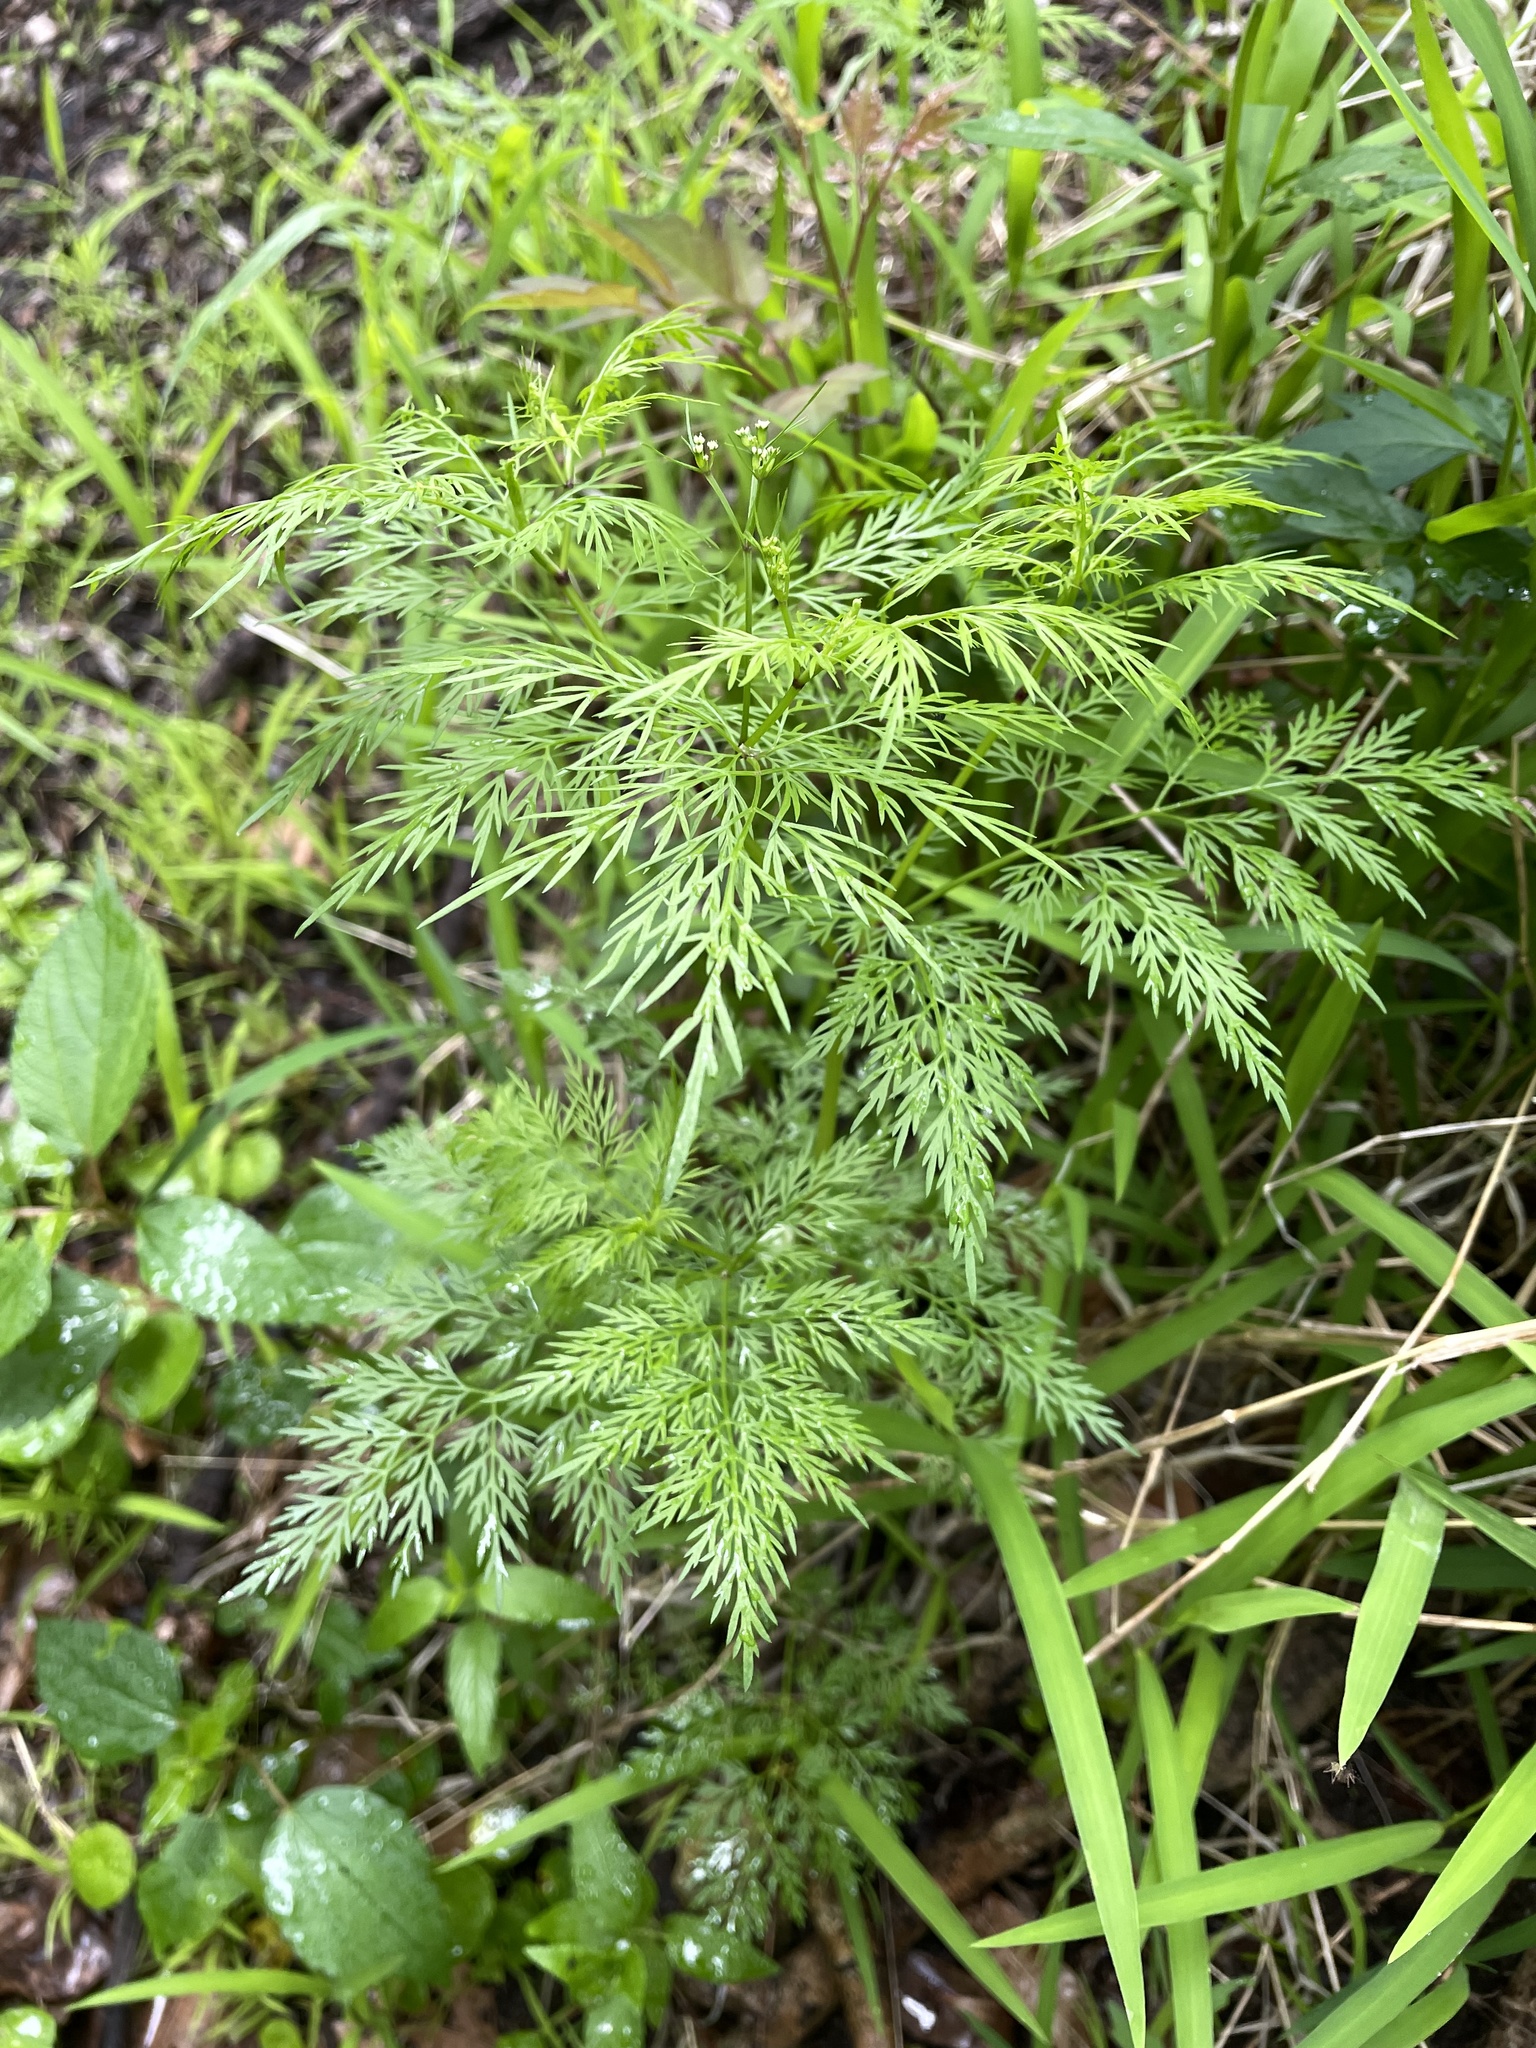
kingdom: Plantae
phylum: Tracheophyta
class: Magnoliopsida
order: Apiales
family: Apiaceae
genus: Trepocarpus
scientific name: Trepocarpus aethusae
